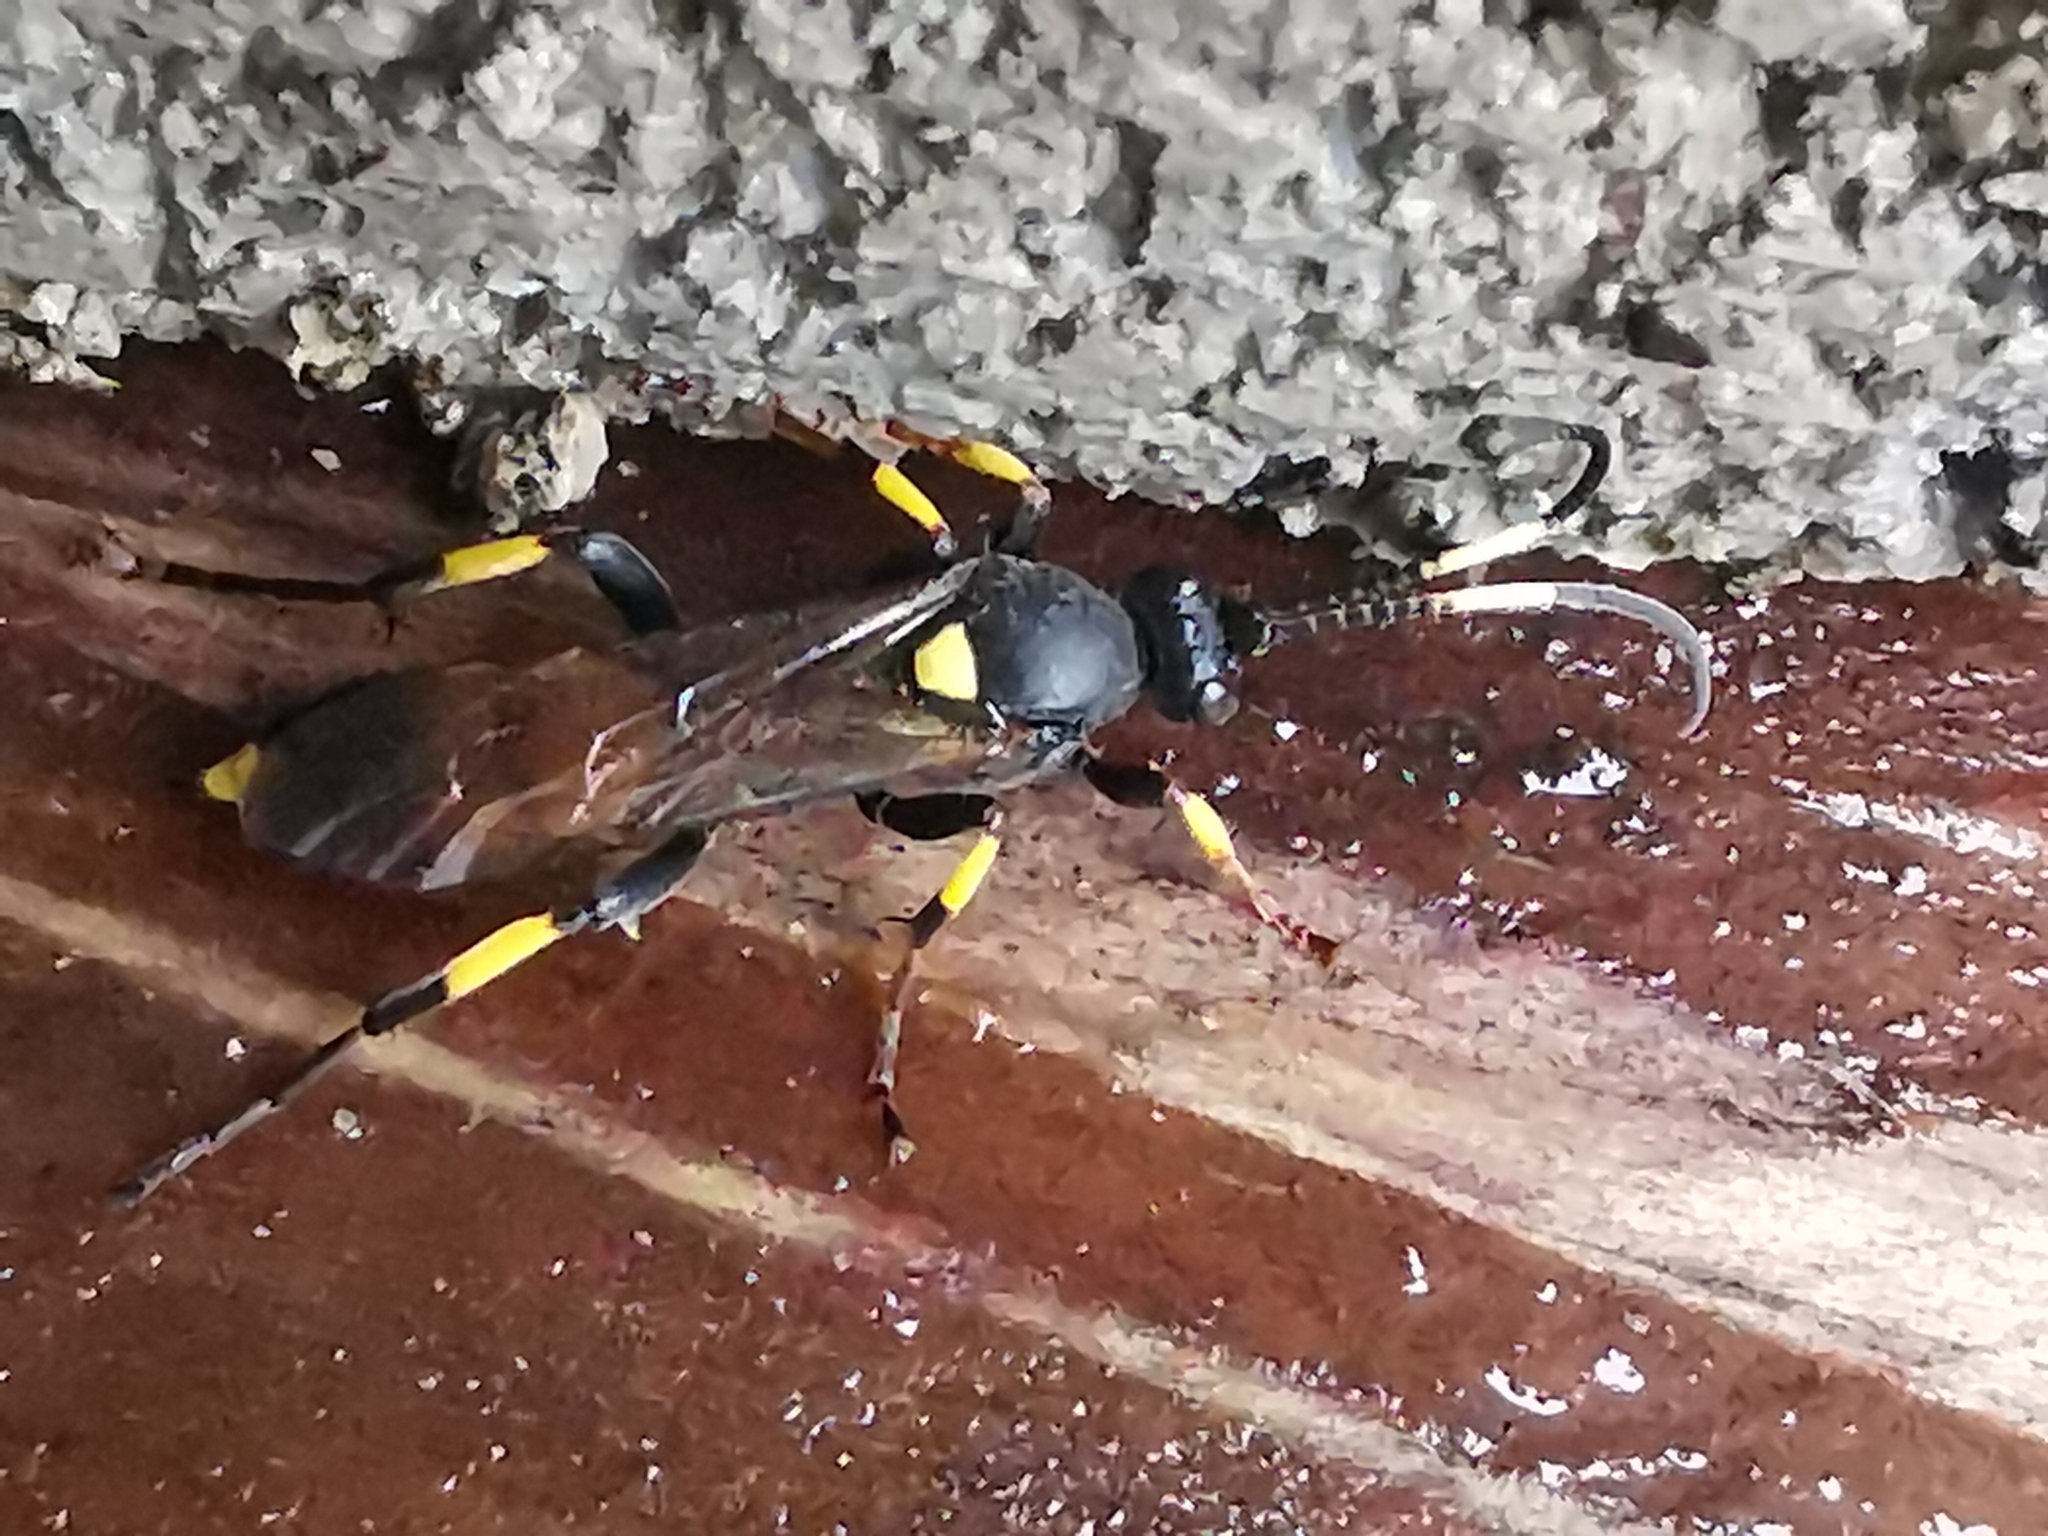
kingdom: Animalia
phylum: Arthropoda
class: Insecta
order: Hymenoptera
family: Ichneumonidae
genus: Ichneumon
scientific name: Ichneumon stramentor
